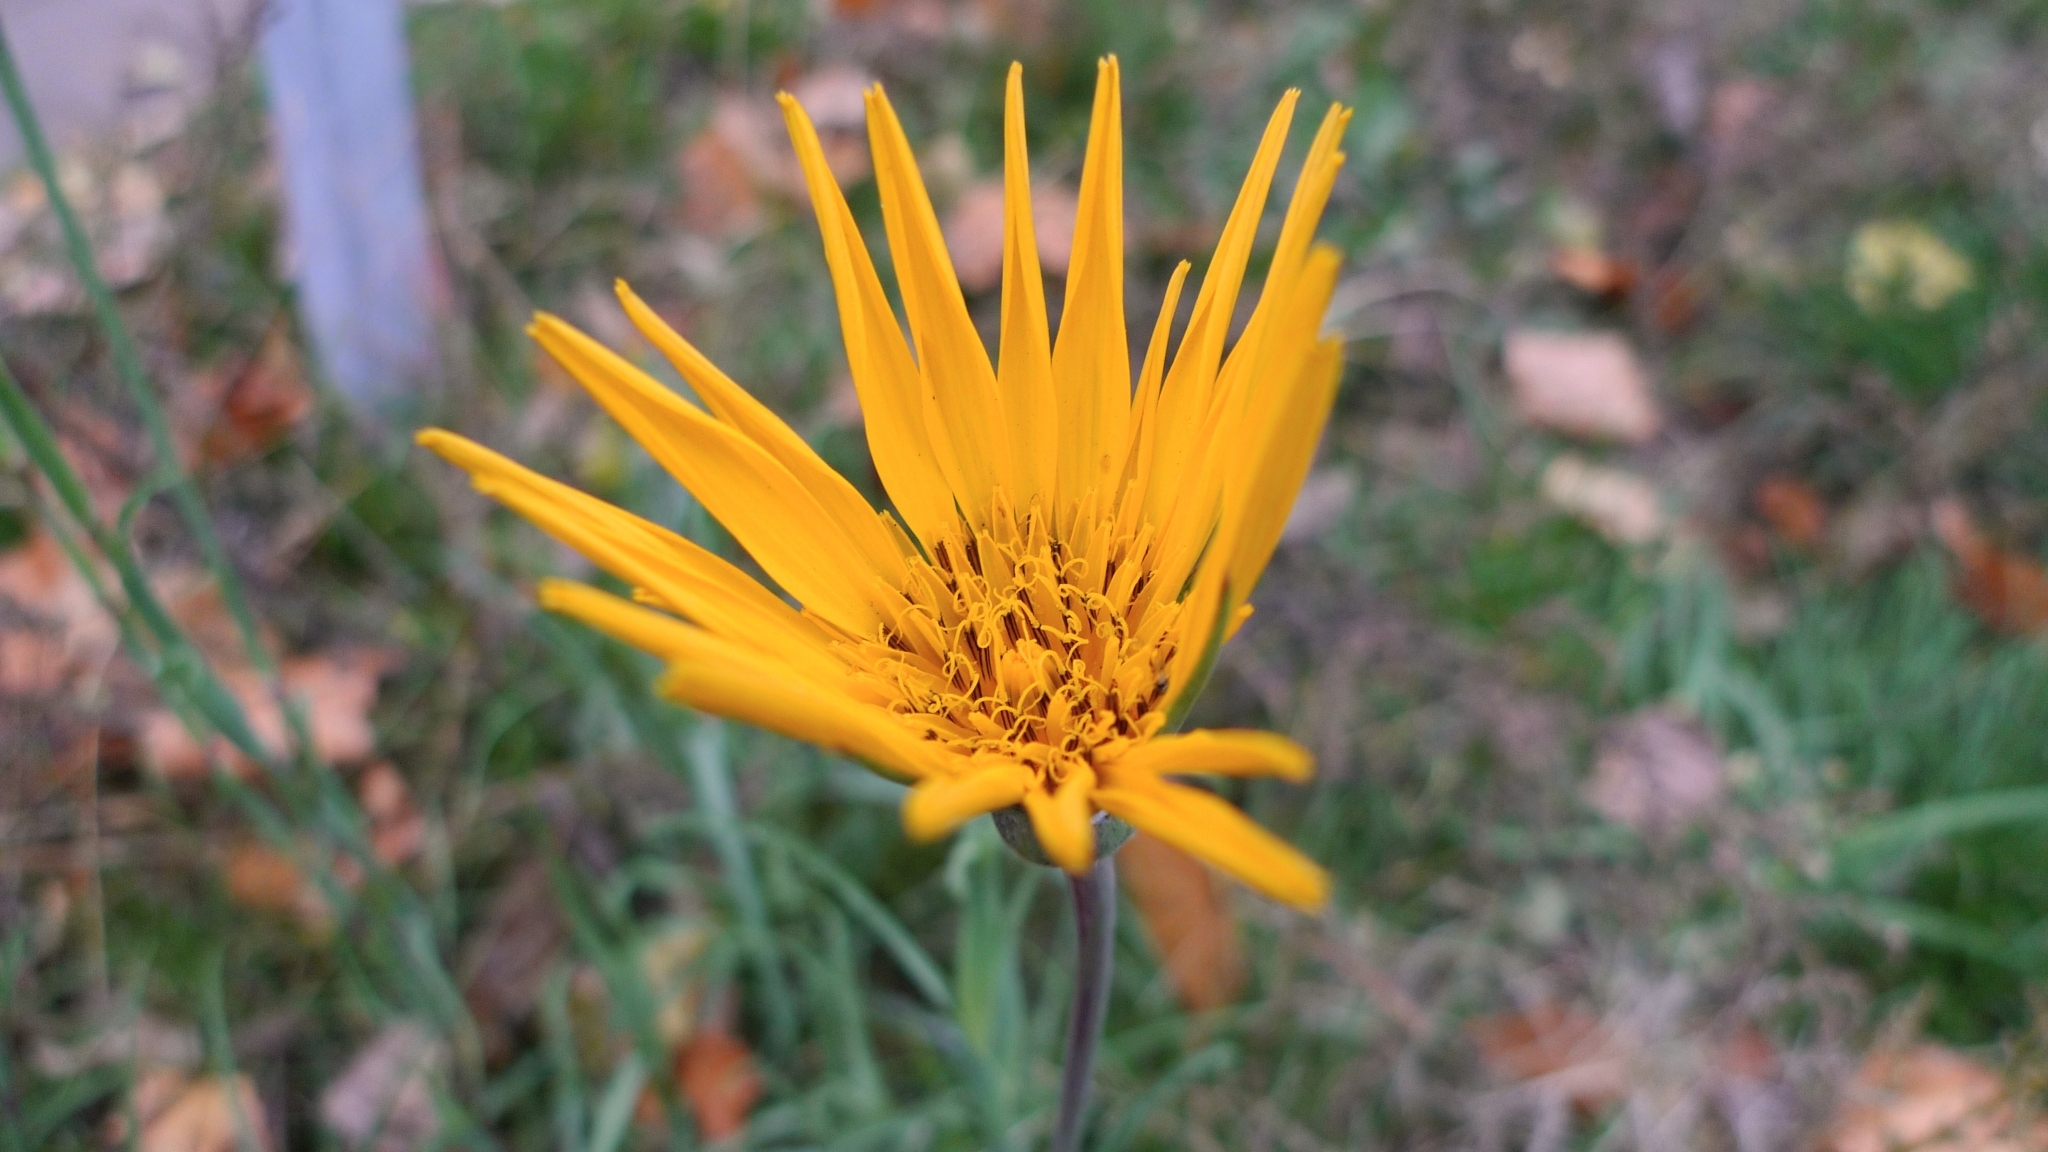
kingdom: Plantae
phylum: Tracheophyta
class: Magnoliopsida
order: Asterales
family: Asteraceae
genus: Tragopogon
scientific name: Tragopogon orientalis
